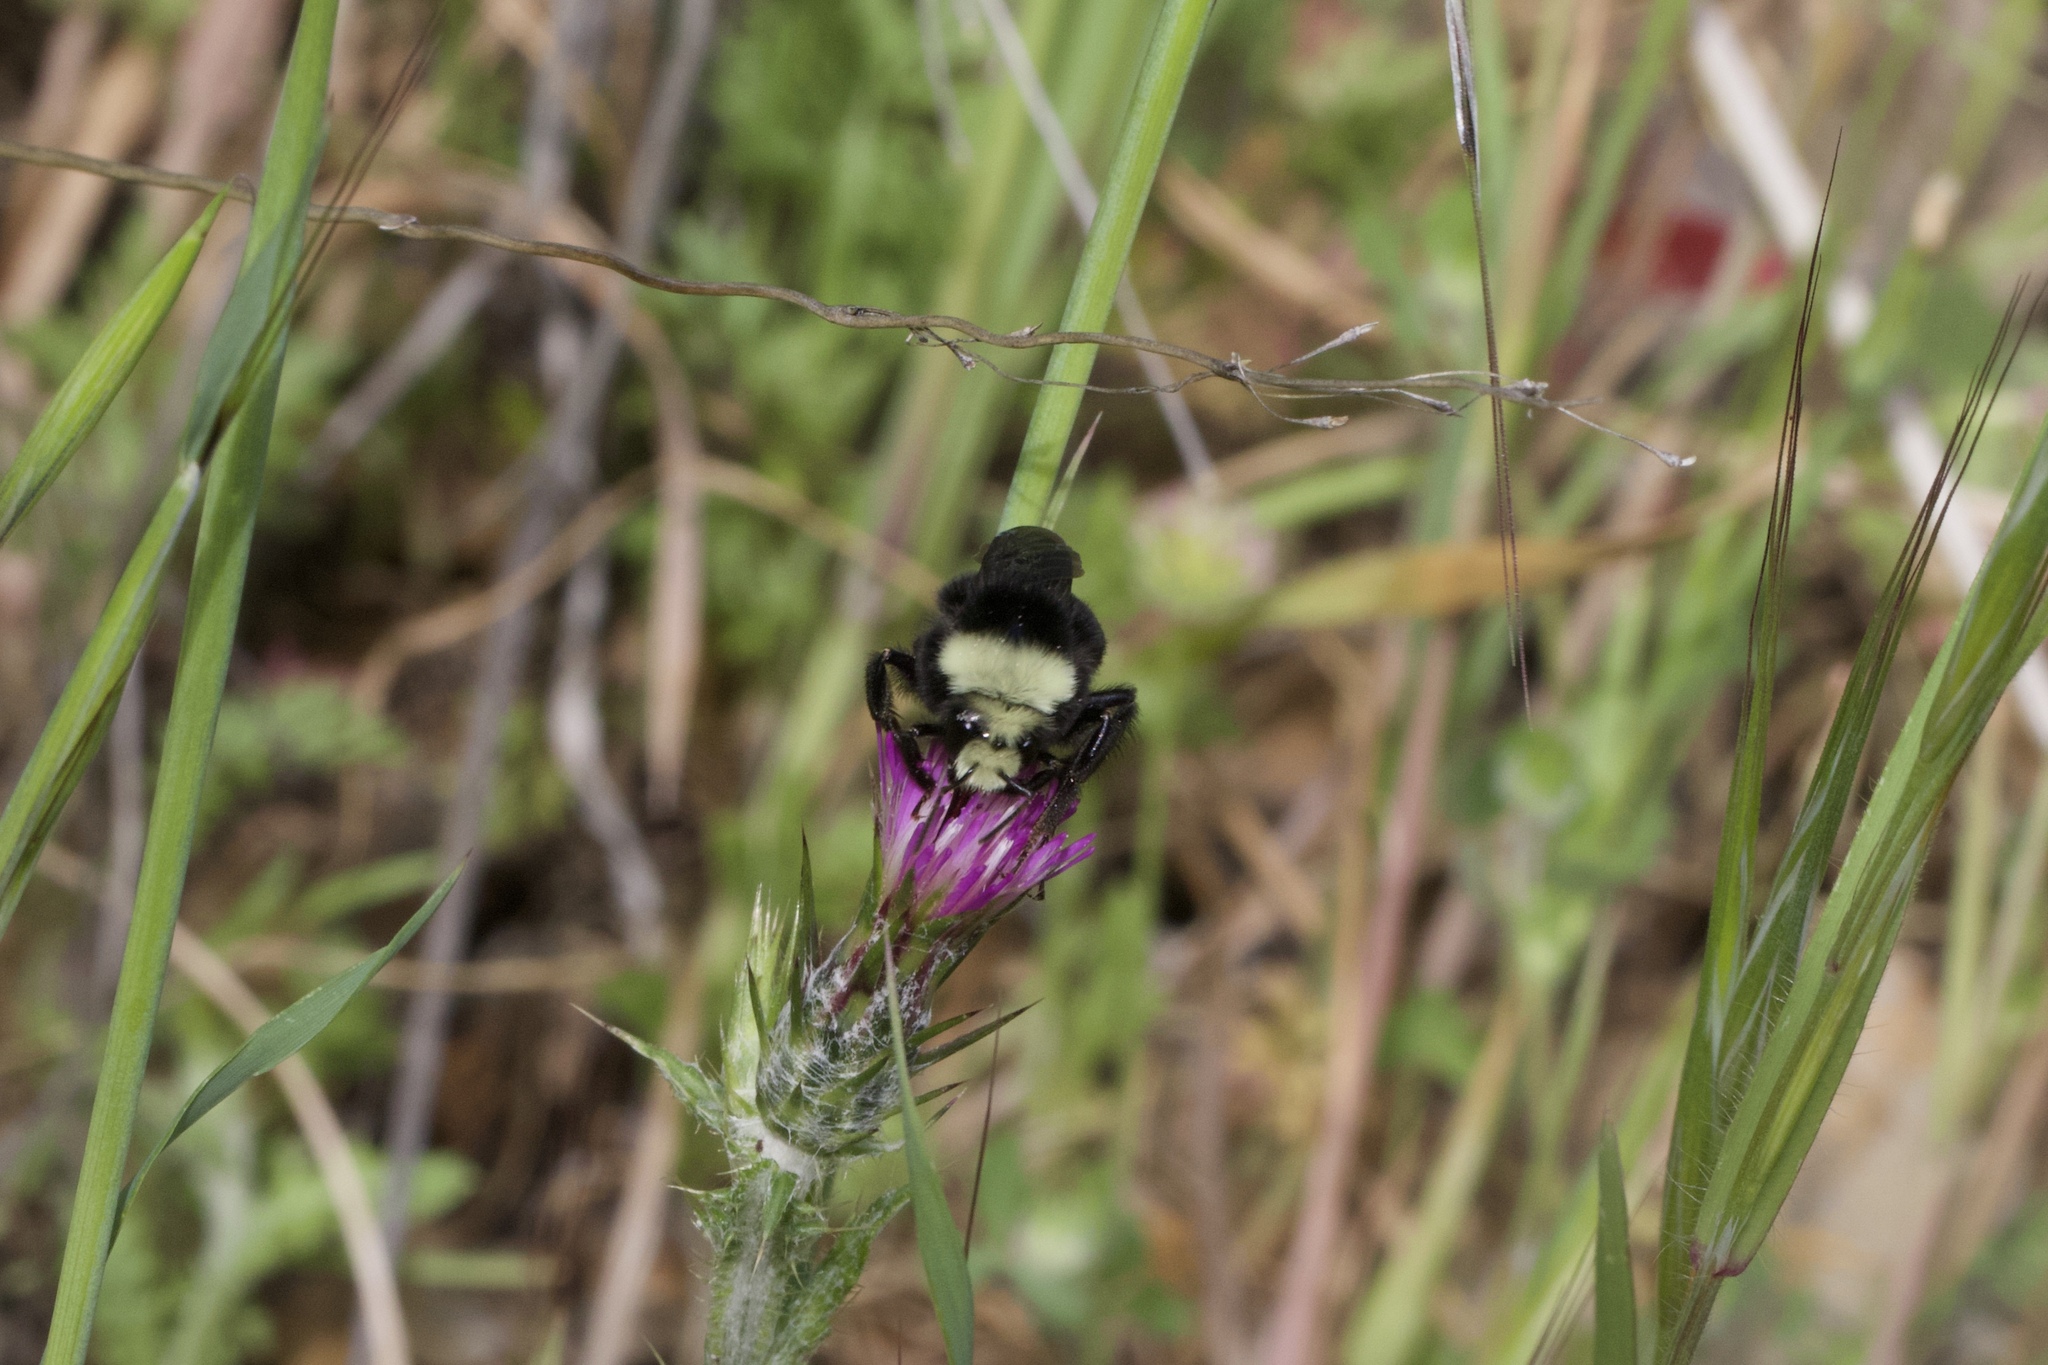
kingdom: Animalia
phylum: Arthropoda
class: Insecta
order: Hymenoptera
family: Apidae
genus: Bombus
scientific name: Bombus vosnesenskii
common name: Vosnesensky bumble bee
